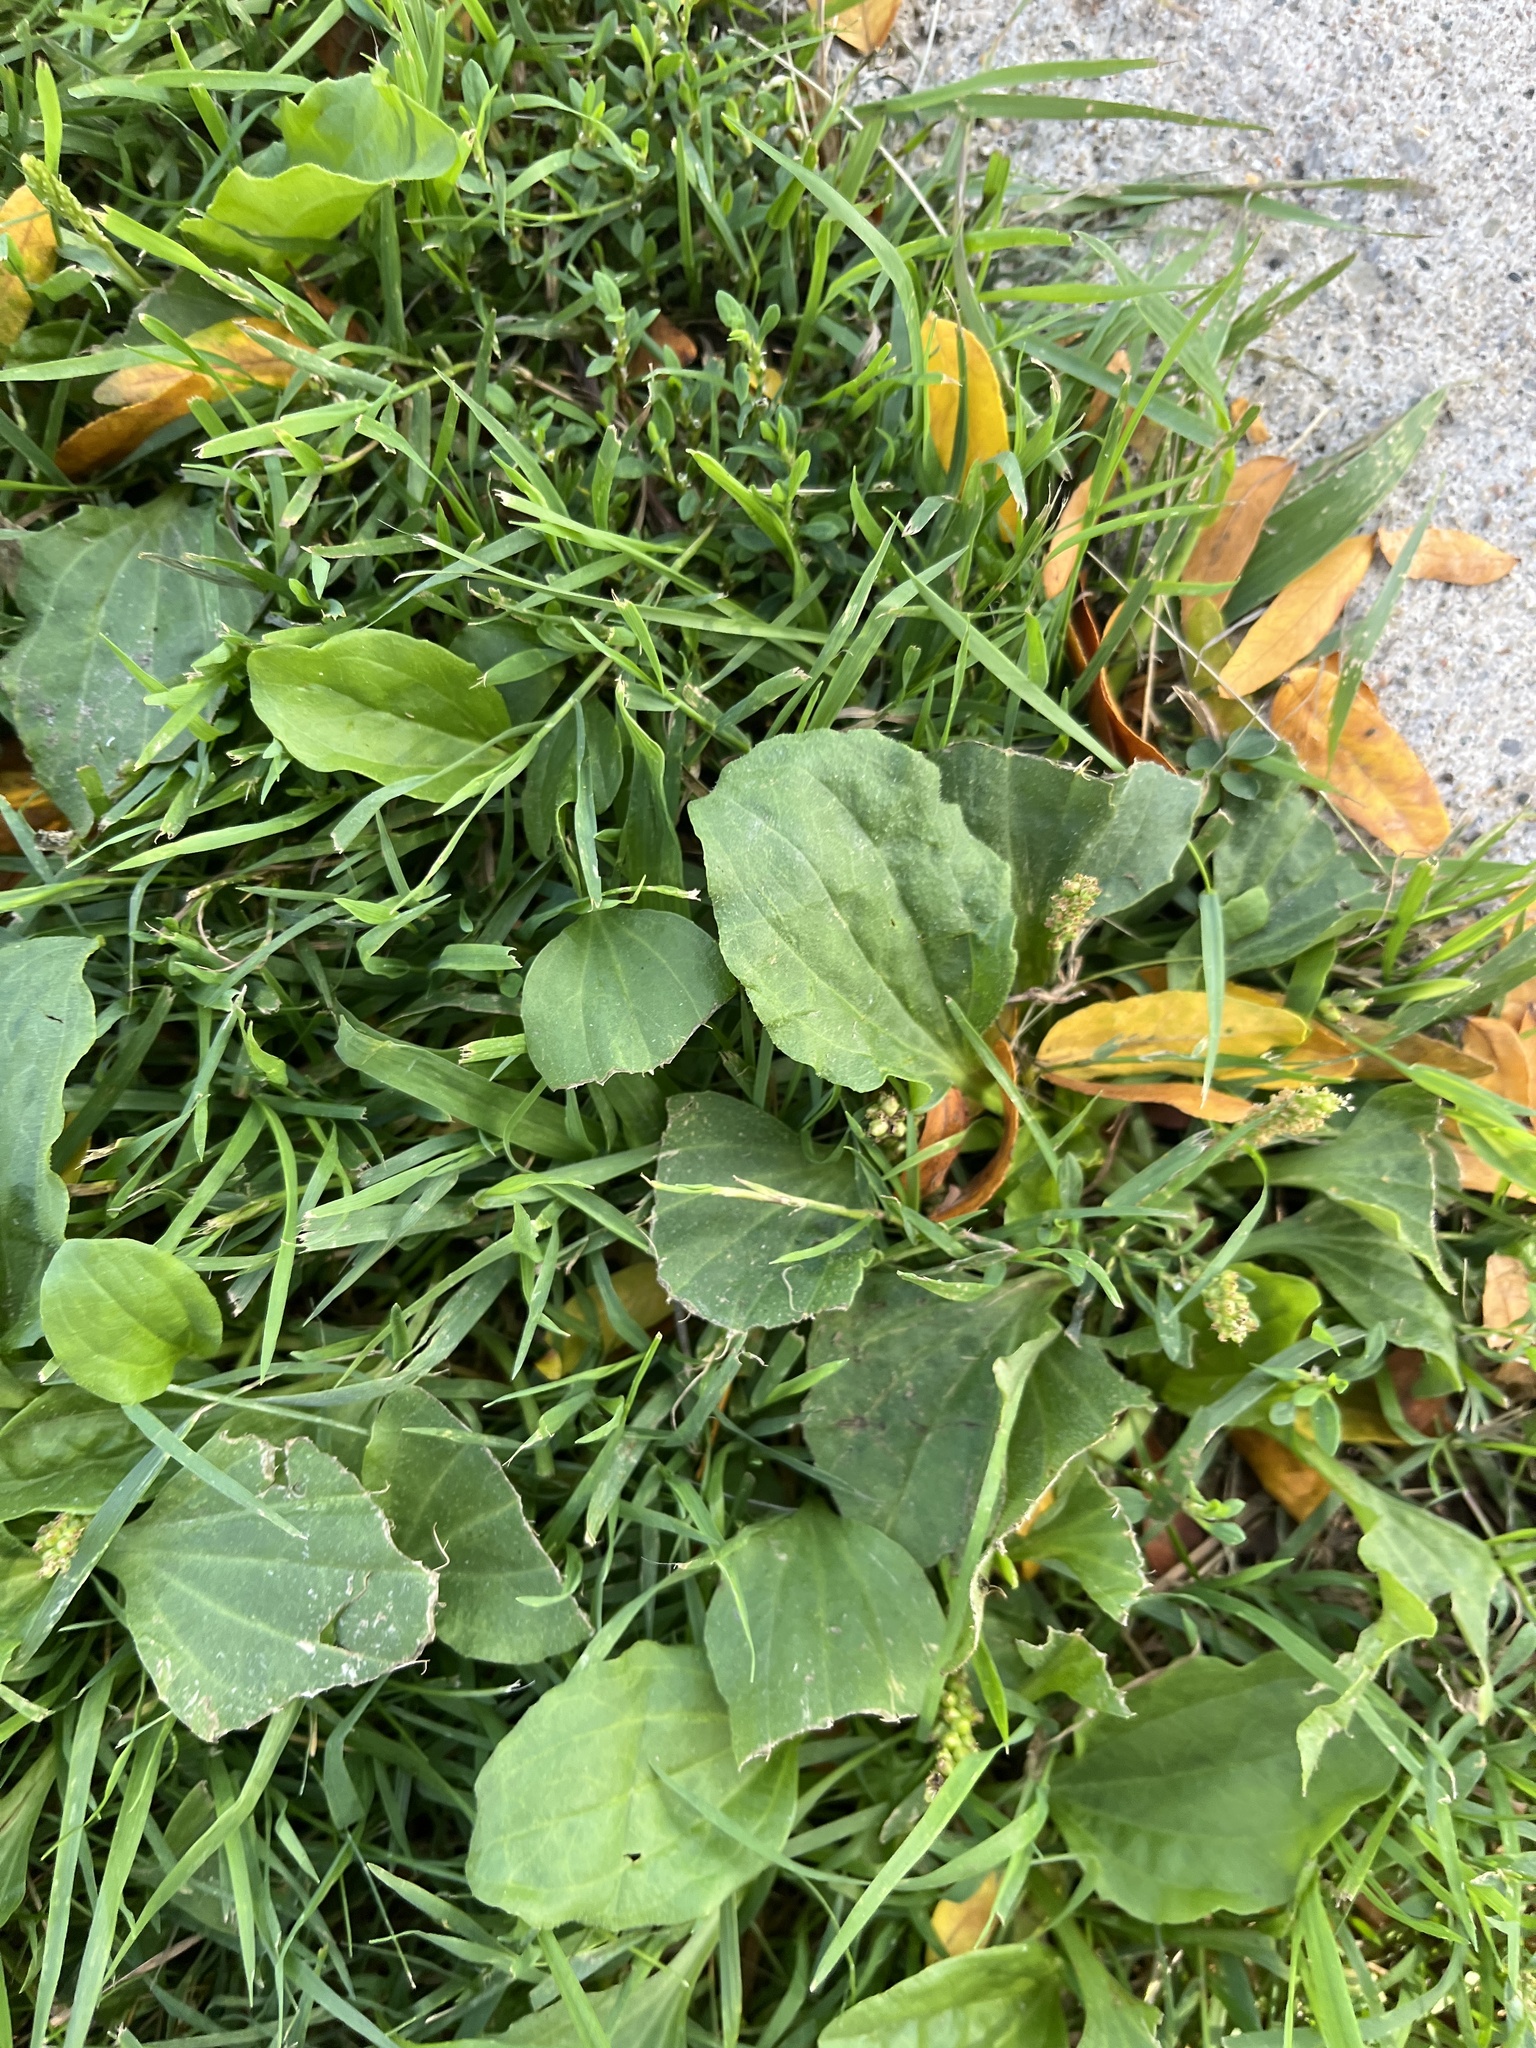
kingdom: Plantae
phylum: Tracheophyta
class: Magnoliopsida
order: Lamiales
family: Plantaginaceae
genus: Plantago
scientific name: Plantago major
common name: Common plantain
